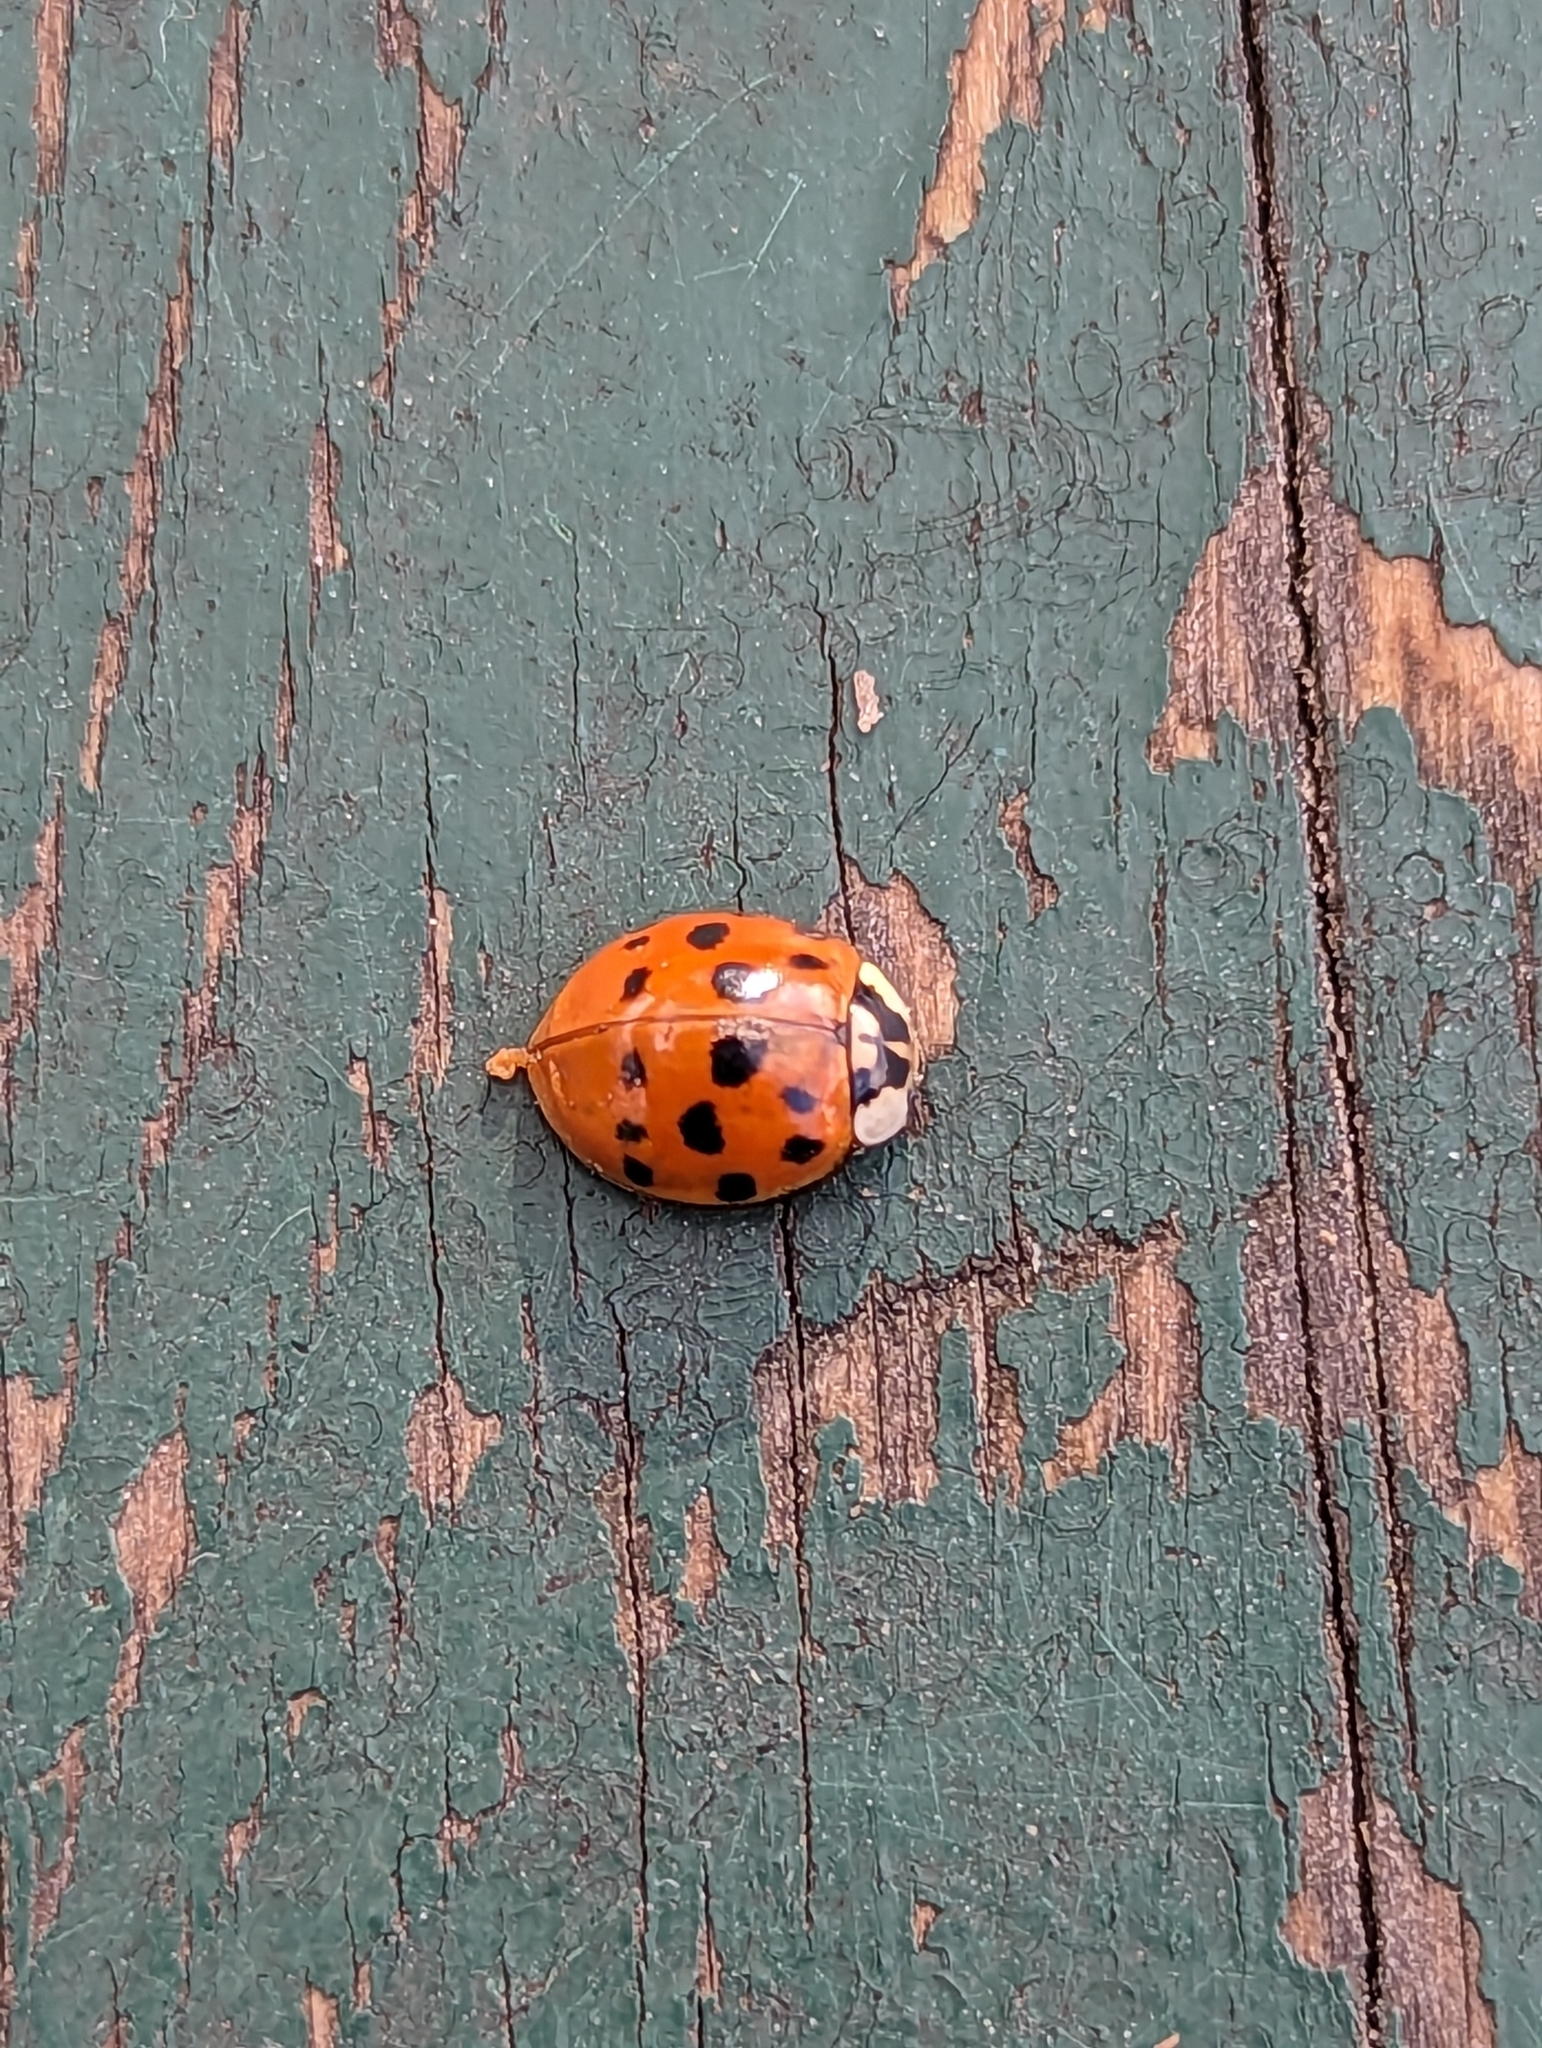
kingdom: Animalia
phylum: Arthropoda
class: Insecta
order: Coleoptera
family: Coccinellidae
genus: Harmonia
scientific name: Harmonia axyridis
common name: Harlequin ladybird
